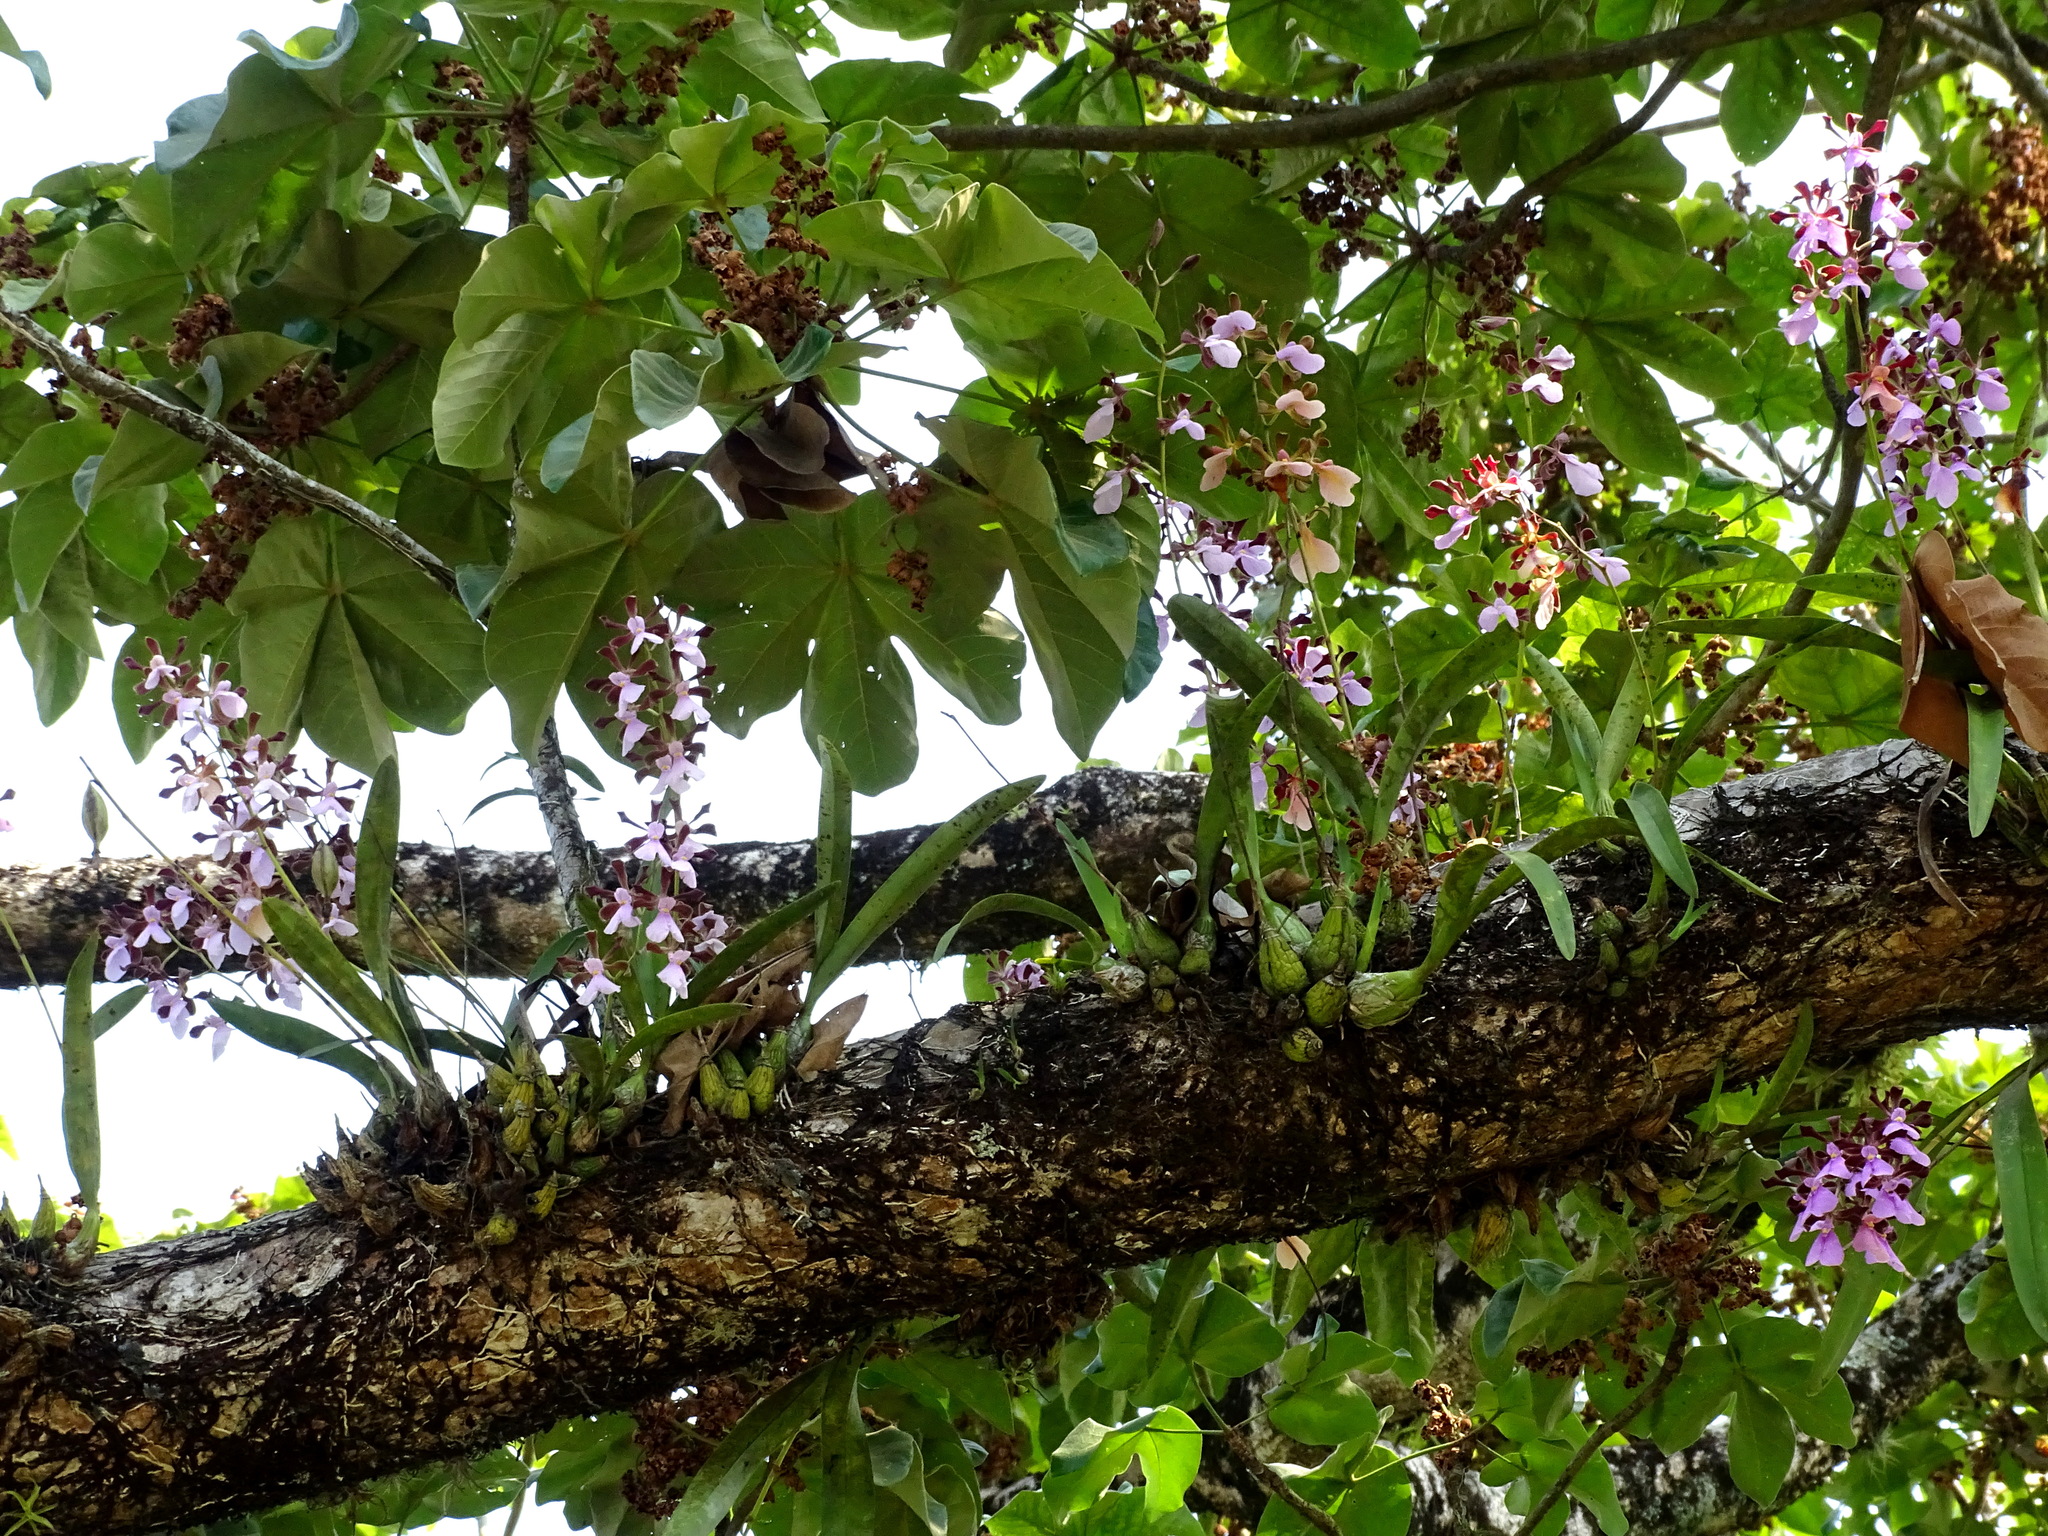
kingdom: Plantae
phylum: Tracheophyta
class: Liliopsida
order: Asparagales
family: Orchidaceae
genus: Encyclia
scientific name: Encyclia cordigera
